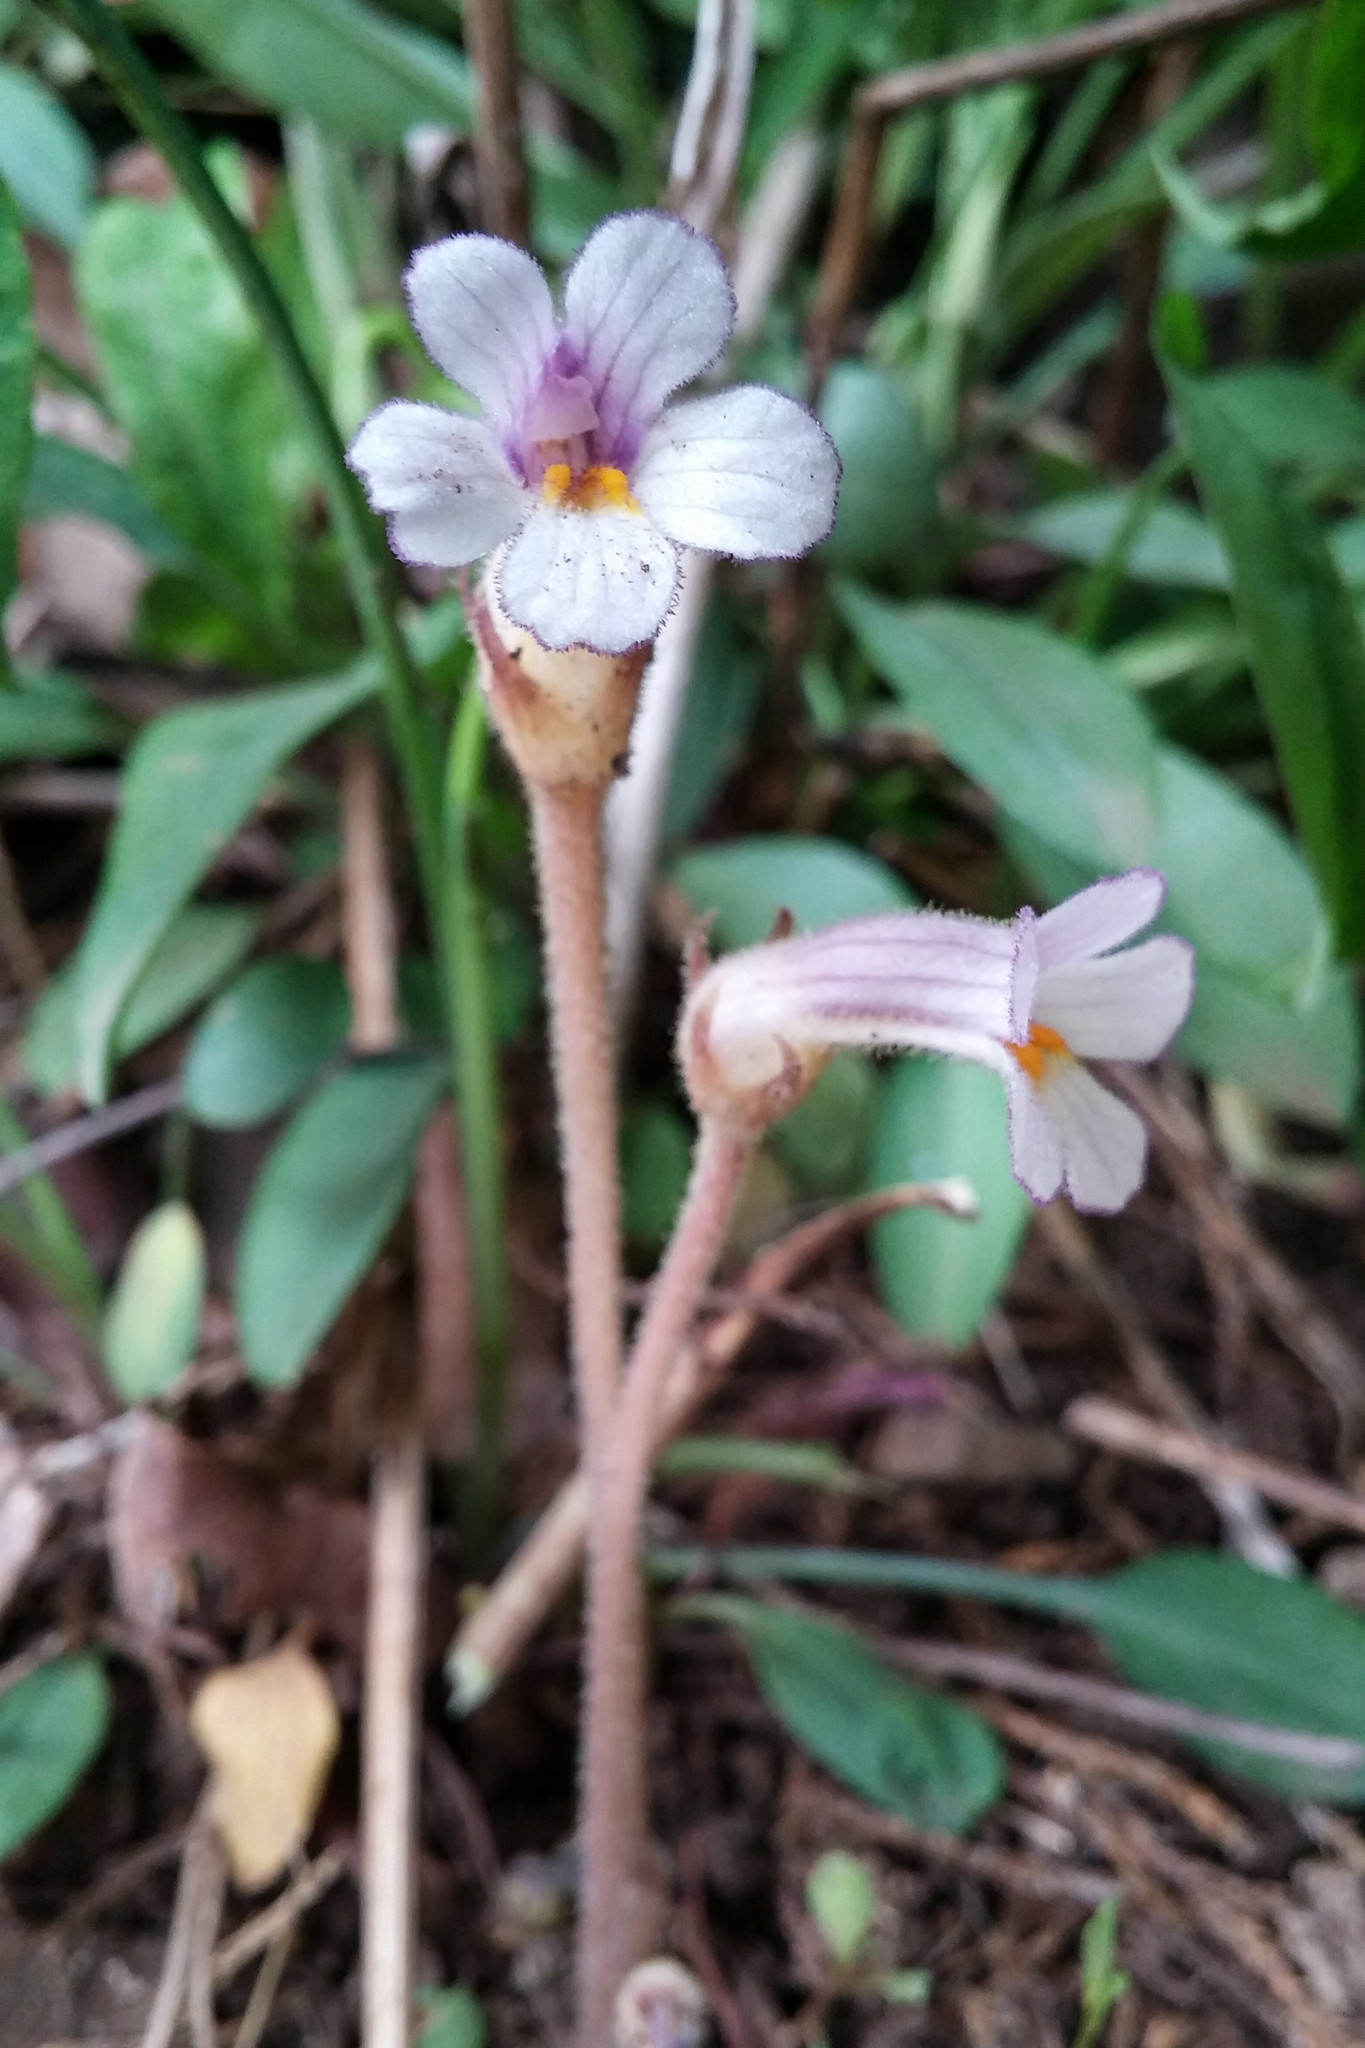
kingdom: Plantae
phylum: Tracheophyta
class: Magnoliopsida
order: Lamiales
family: Orobanchaceae
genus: Aphyllon
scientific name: Aphyllon uniflorum
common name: One-flowered broomrape
